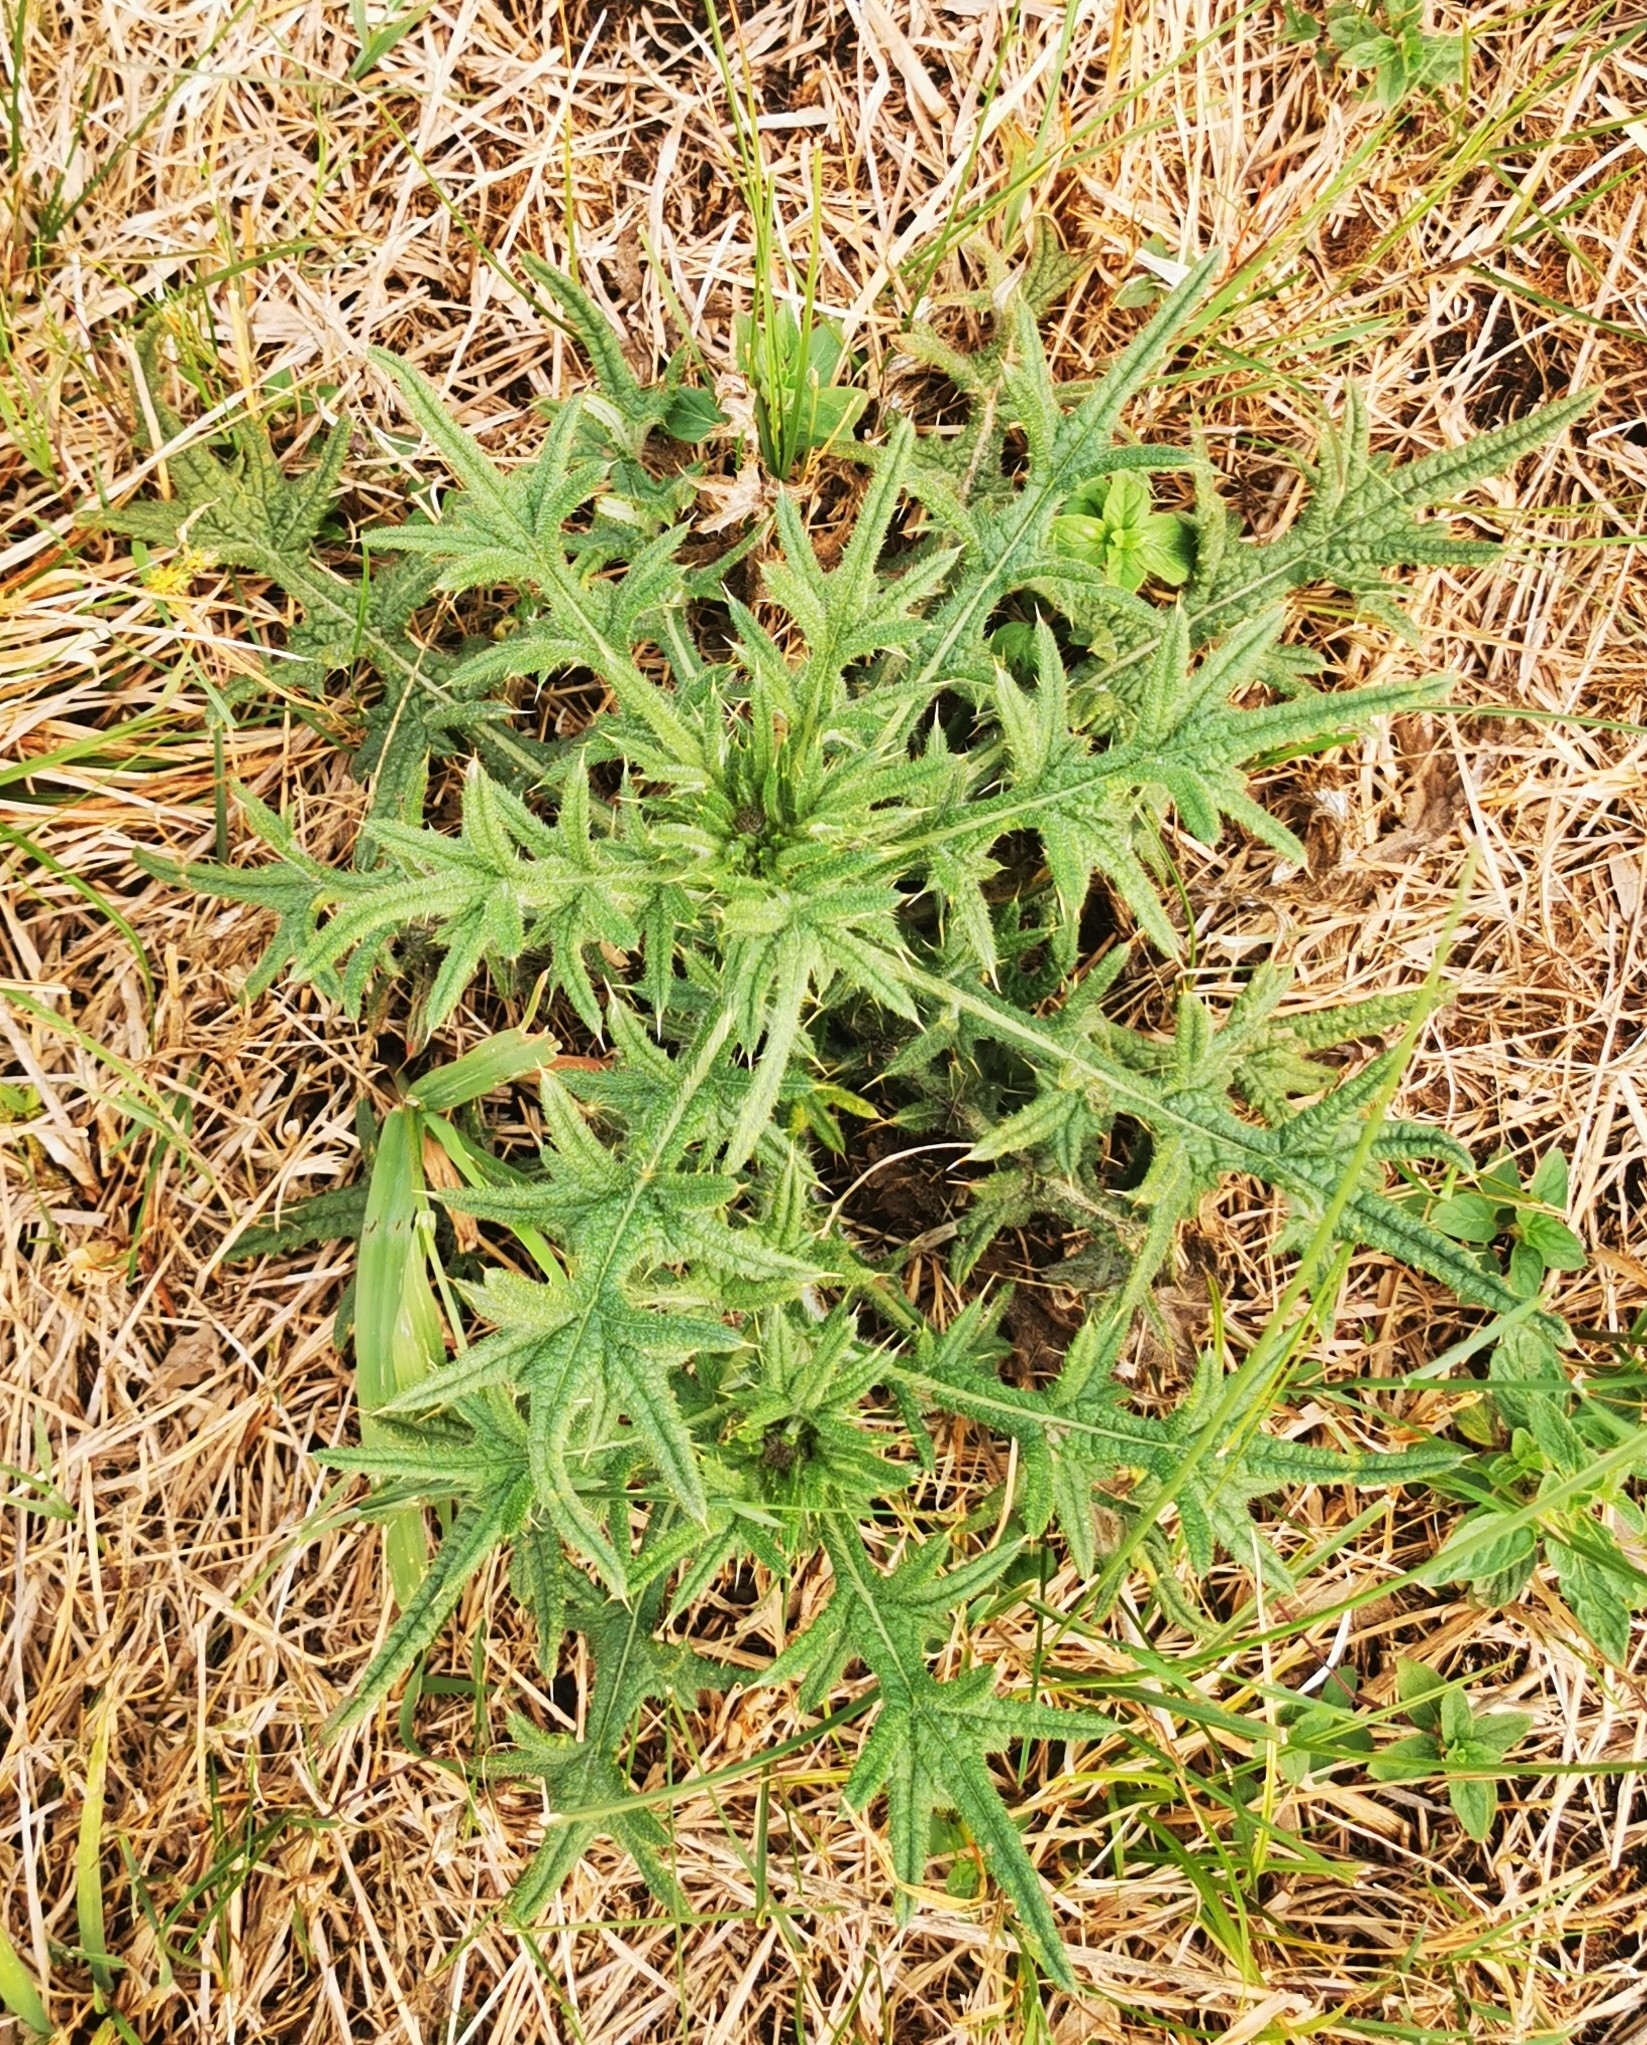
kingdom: Plantae
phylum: Tracheophyta
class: Magnoliopsida
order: Asterales
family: Asteraceae
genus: Cirsium
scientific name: Cirsium vulgare
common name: Bull thistle
